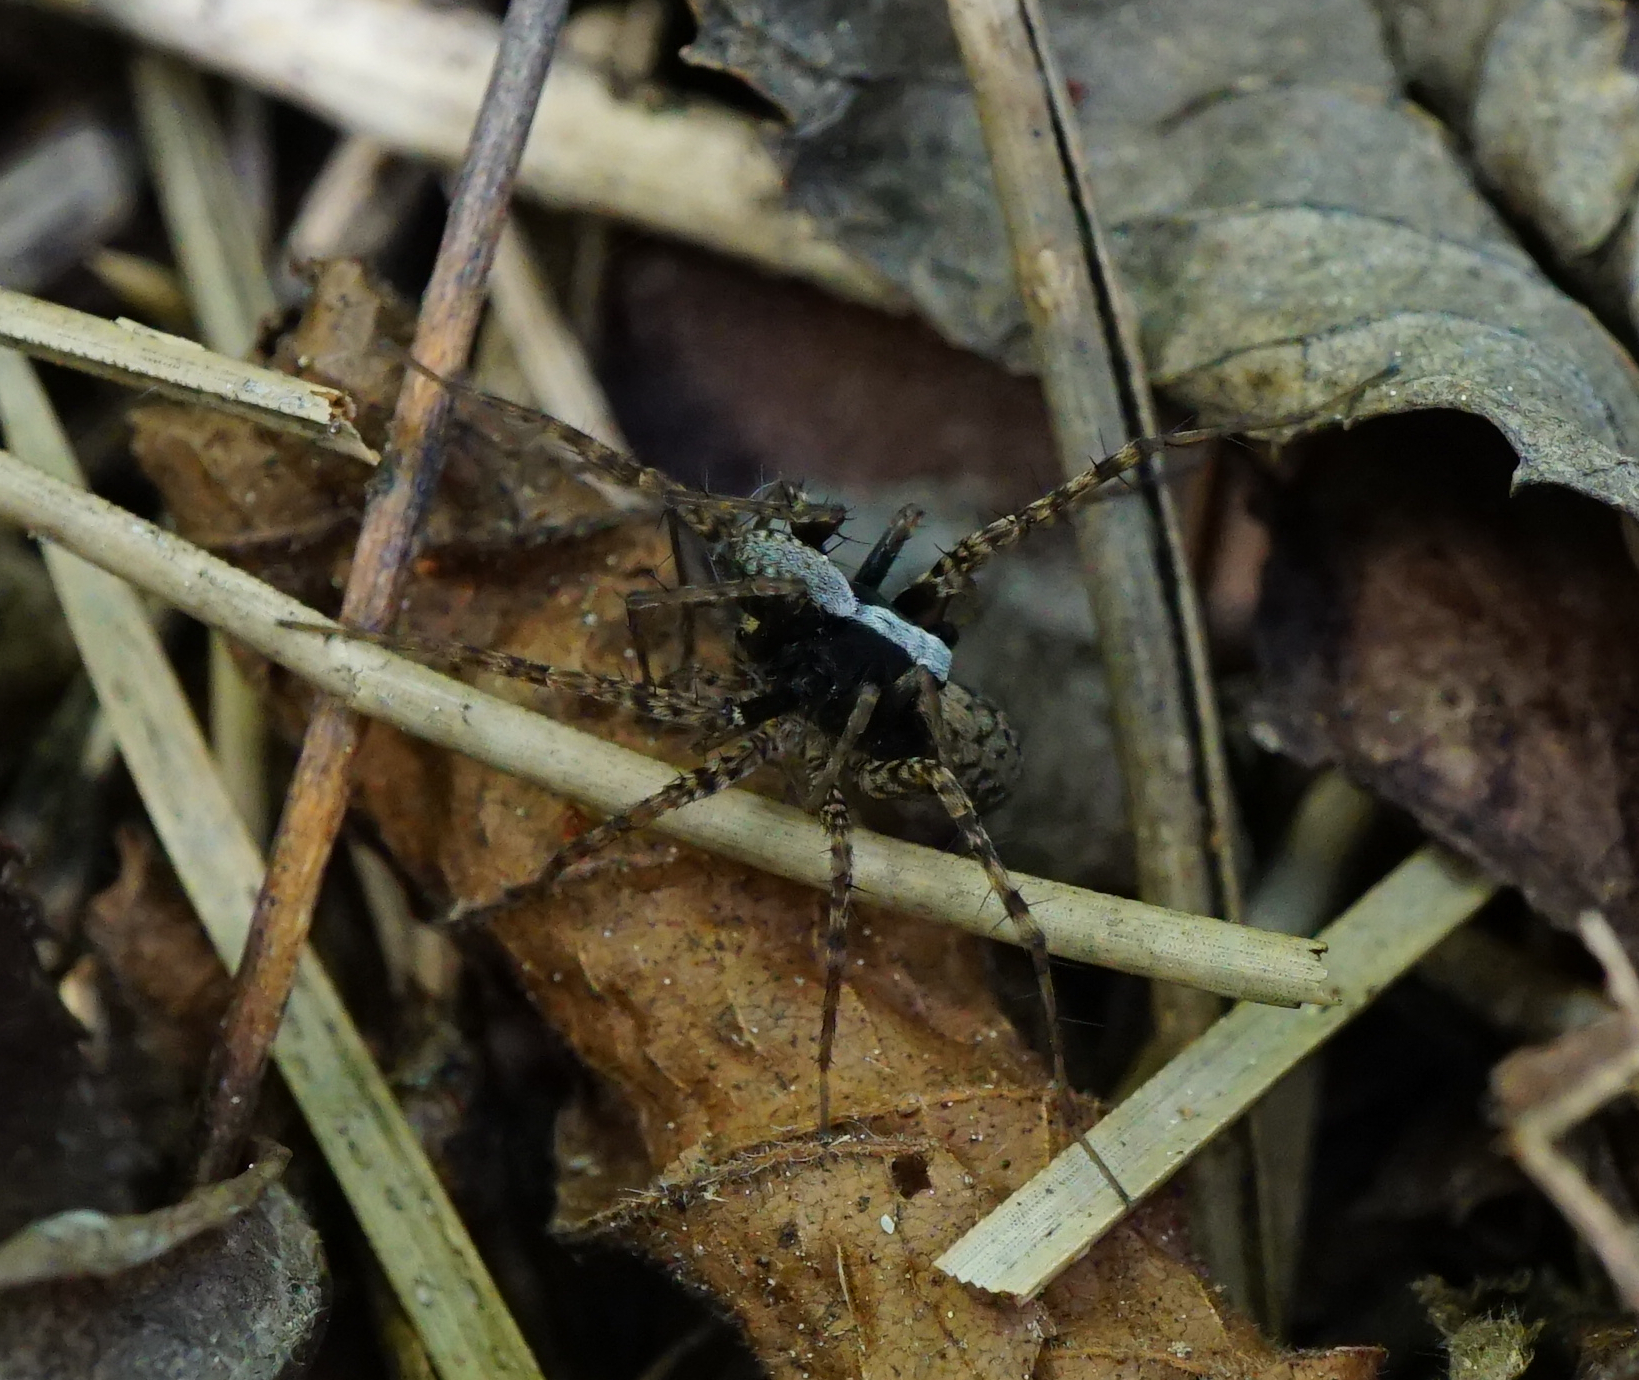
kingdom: Animalia
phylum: Arthropoda
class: Arachnida
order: Araneae
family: Lycosidae
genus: Pardosa
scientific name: Pardosa
